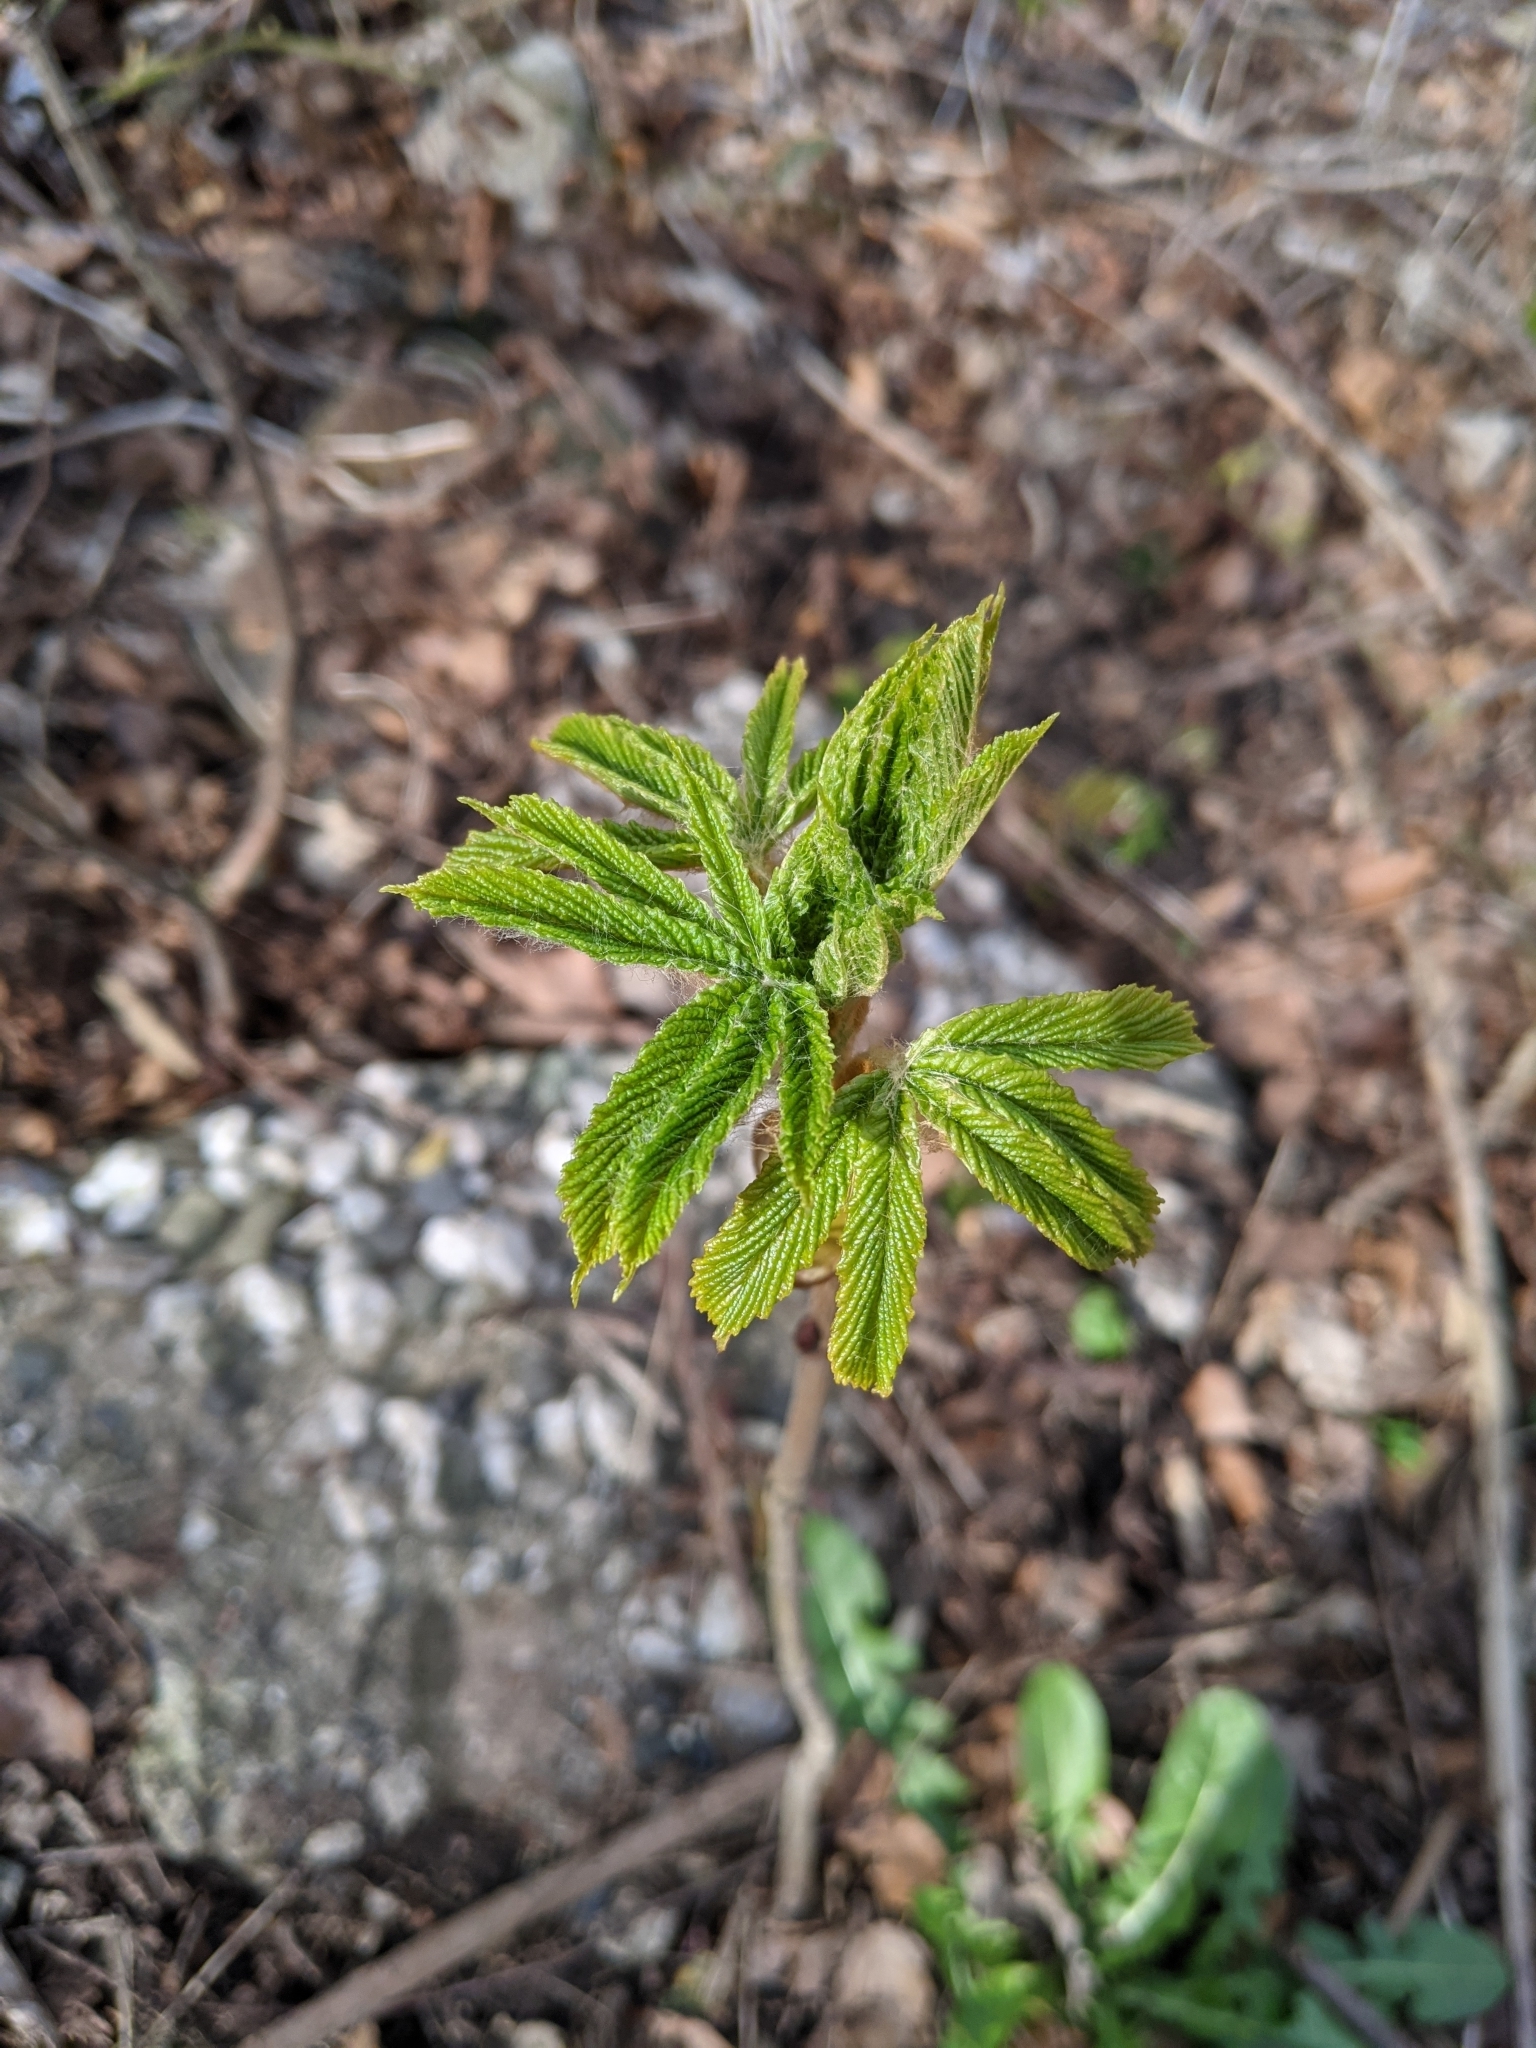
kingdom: Plantae
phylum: Tracheophyta
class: Magnoliopsida
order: Sapindales
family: Sapindaceae
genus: Aesculus
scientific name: Aesculus hippocastanum
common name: Horse-chestnut
